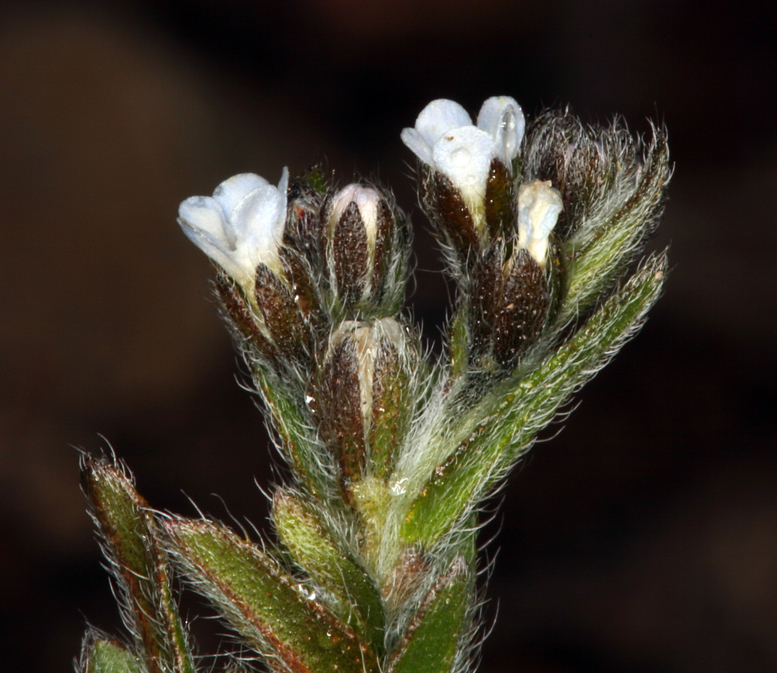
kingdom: Plantae
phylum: Tracheophyta
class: Magnoliopsida
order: Boraginales
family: Boraginaceae
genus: Lappula
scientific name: Lappula redowskii
